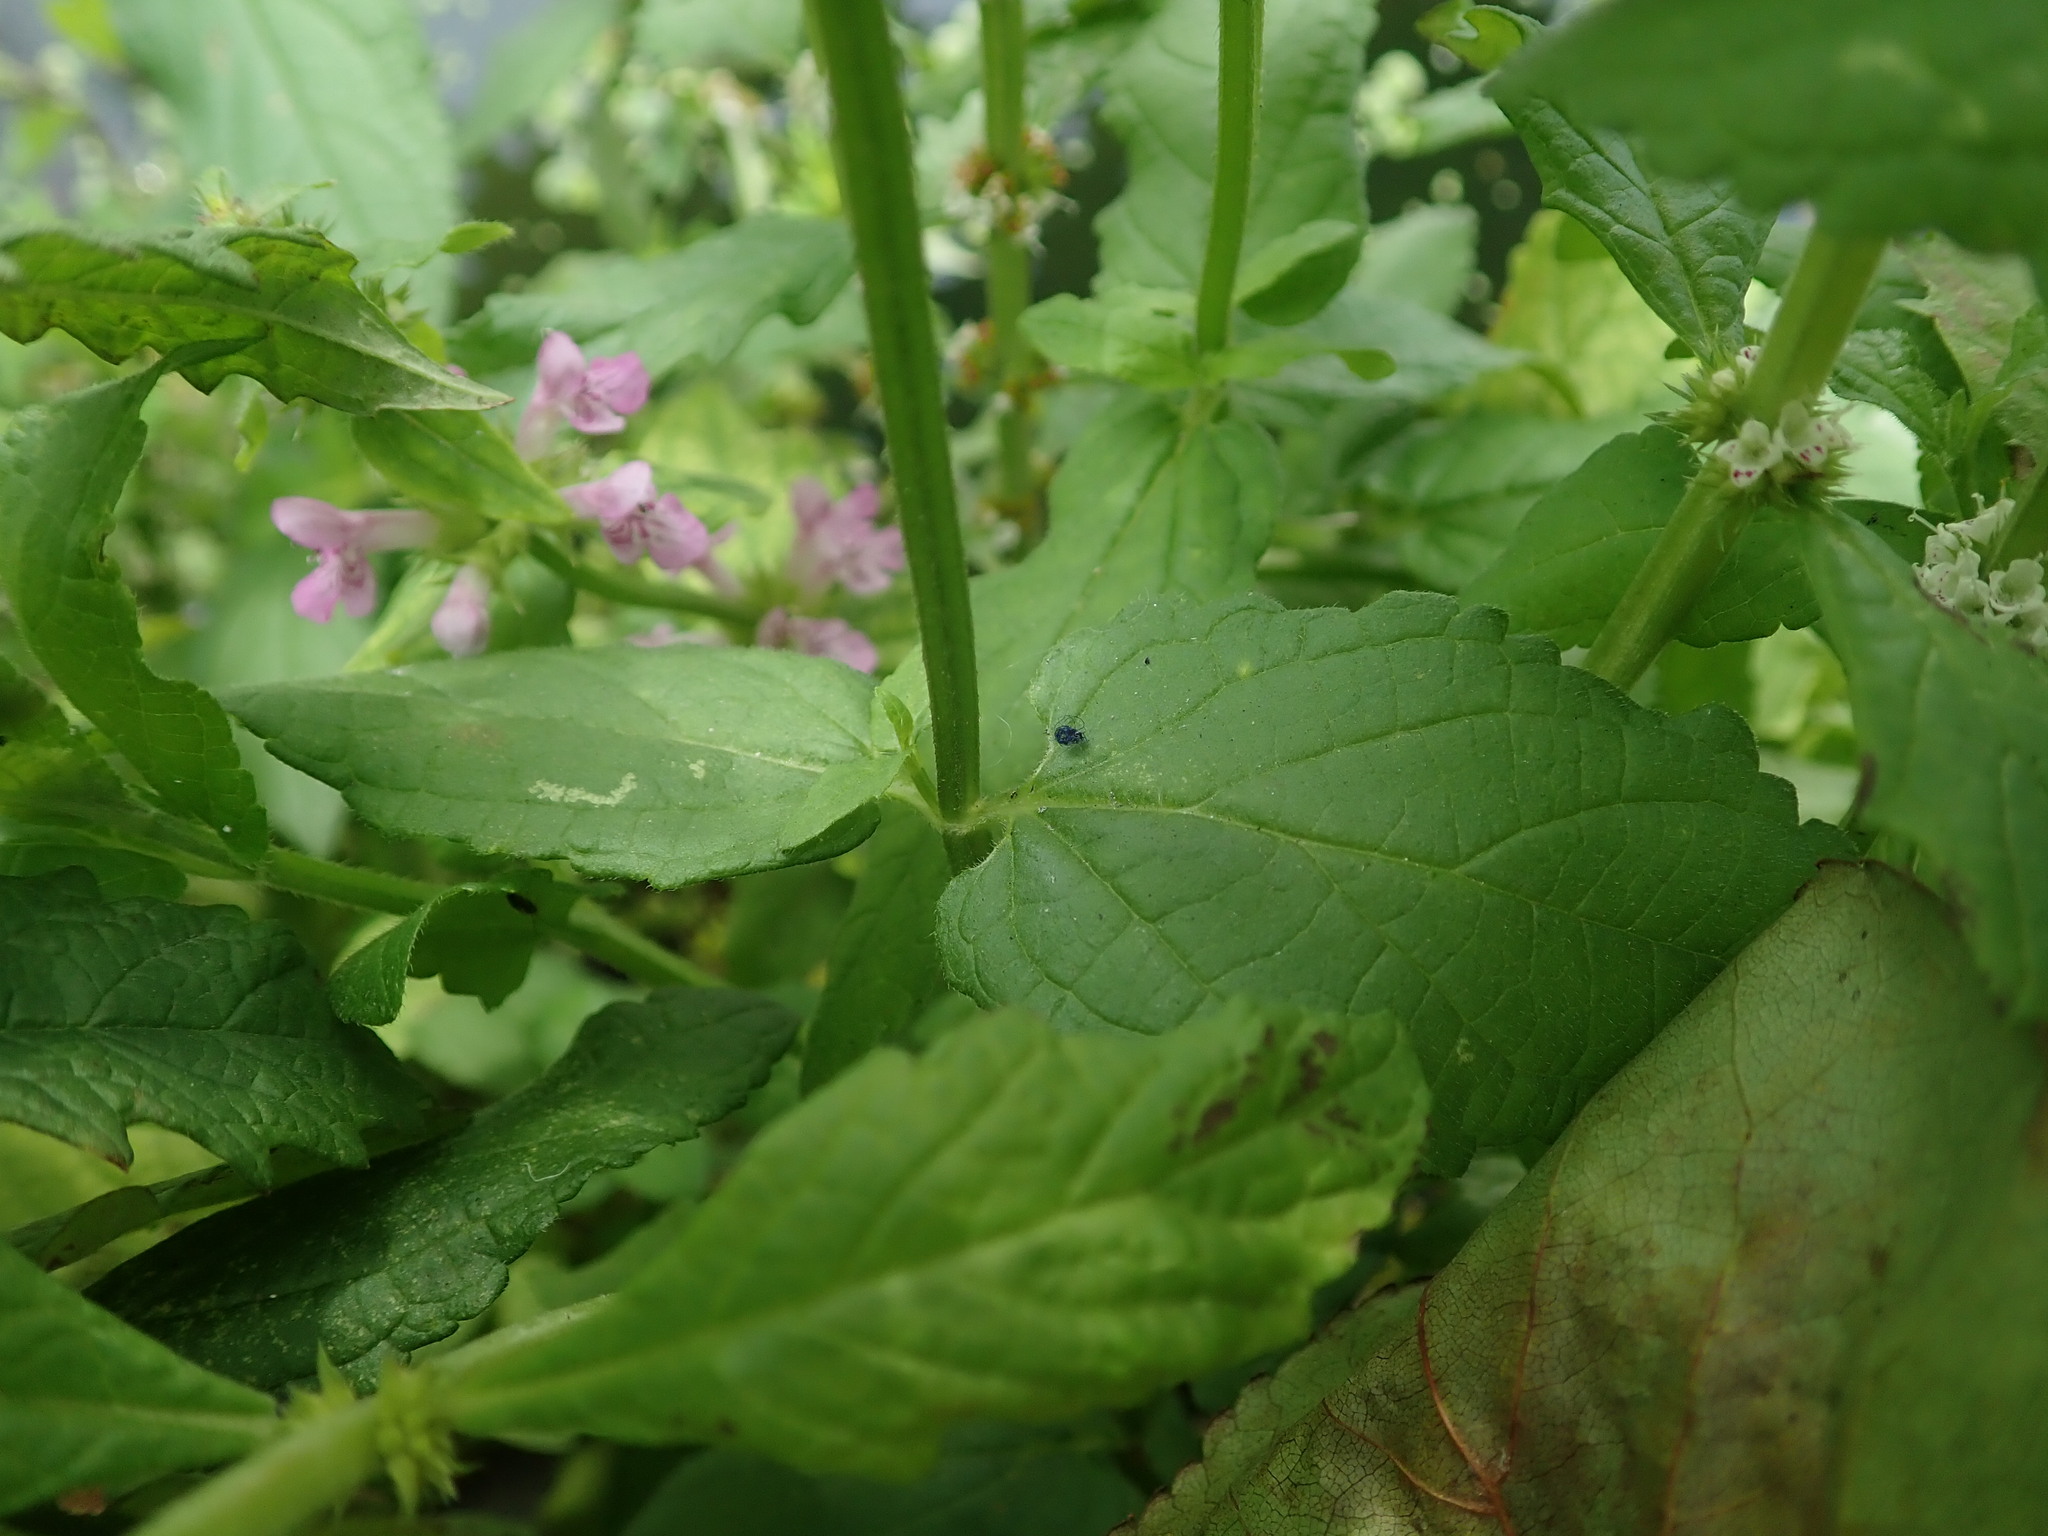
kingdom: Plantae
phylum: Tracheophyta
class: Magnoliopsida
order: Lamiales
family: Lamiaceae
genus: Stachys
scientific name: Stachys ambigua
